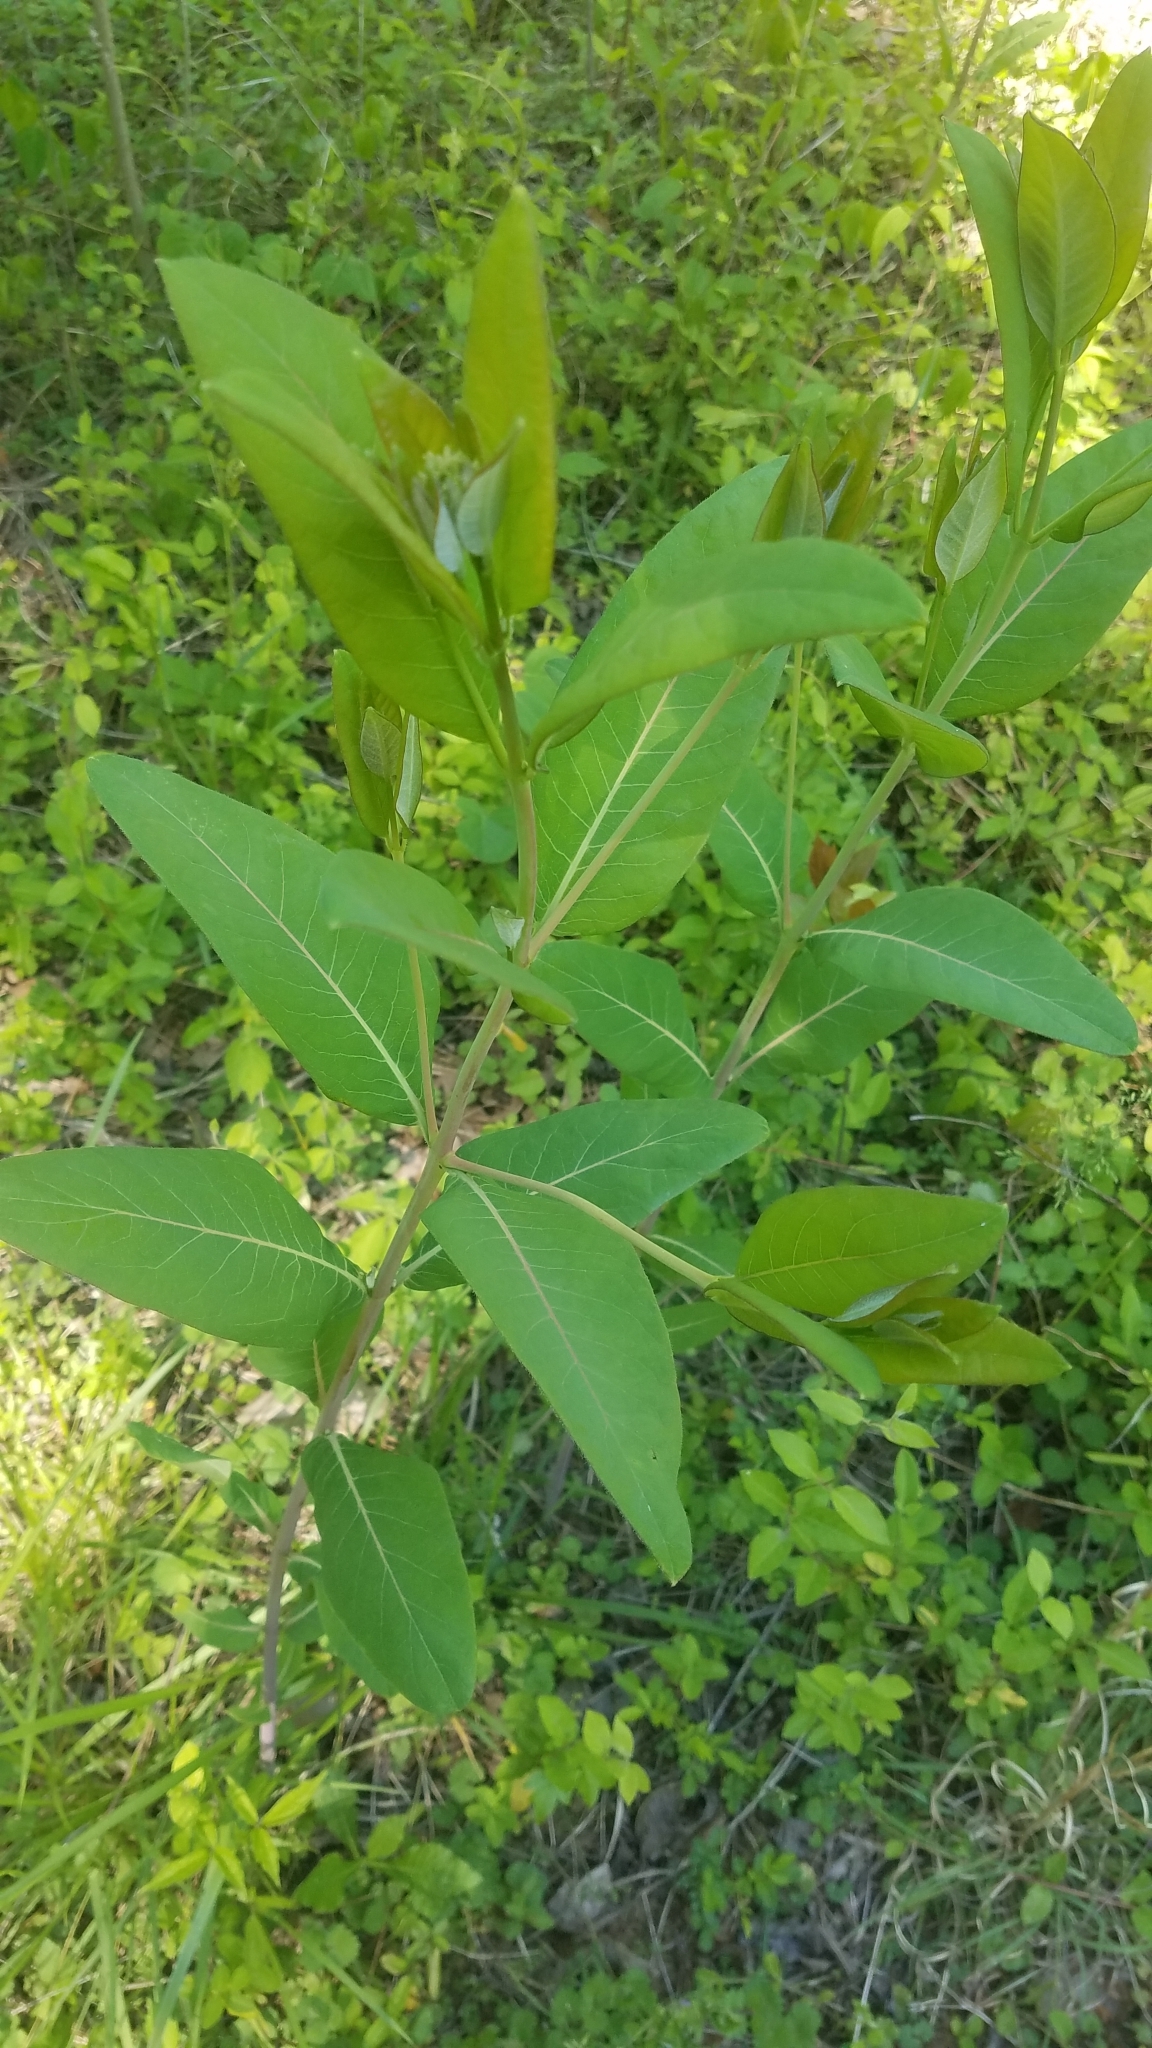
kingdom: Plantae
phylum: Tracheophyta
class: Magnoliopsida
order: Gentianales
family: Apocynaceae
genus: Apocynum
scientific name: Apocynum cannabinum
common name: Hemp dogbane
